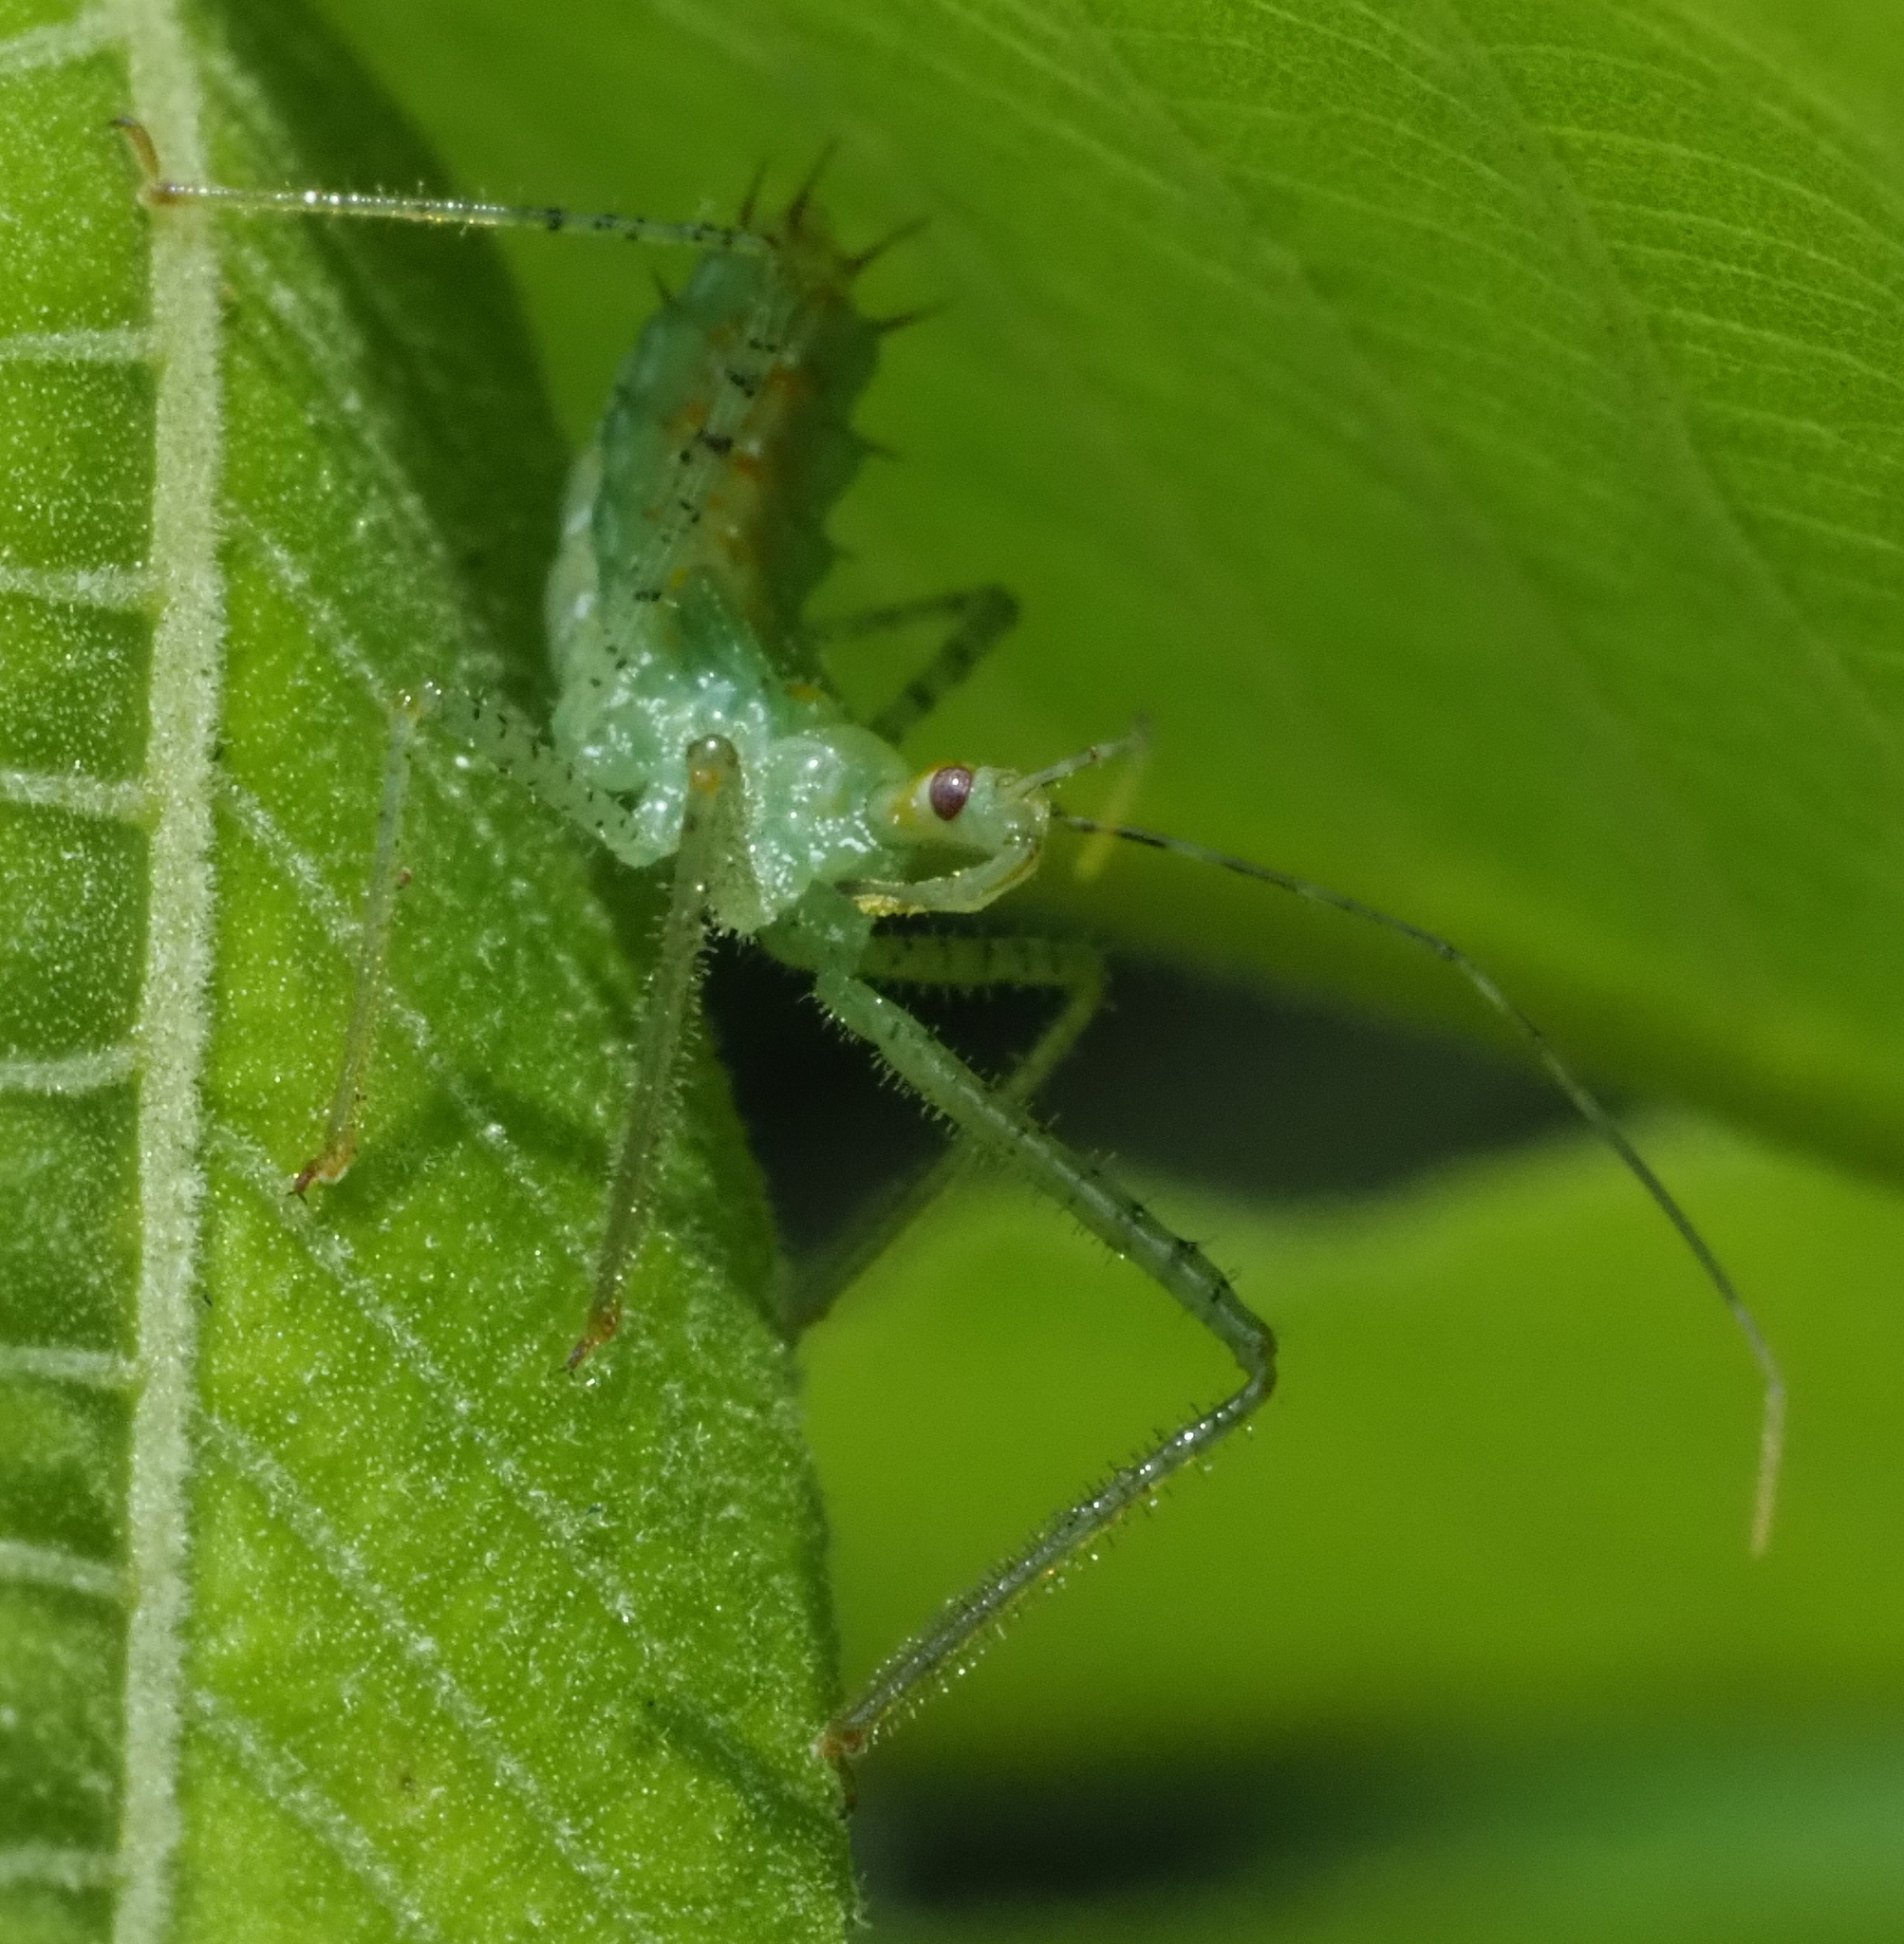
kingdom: Animalia
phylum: Arthropoda
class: Insecta
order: Hemiptera
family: Reduviidae
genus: Zelus
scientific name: Zelus luridus
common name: Pale green assassin bug
